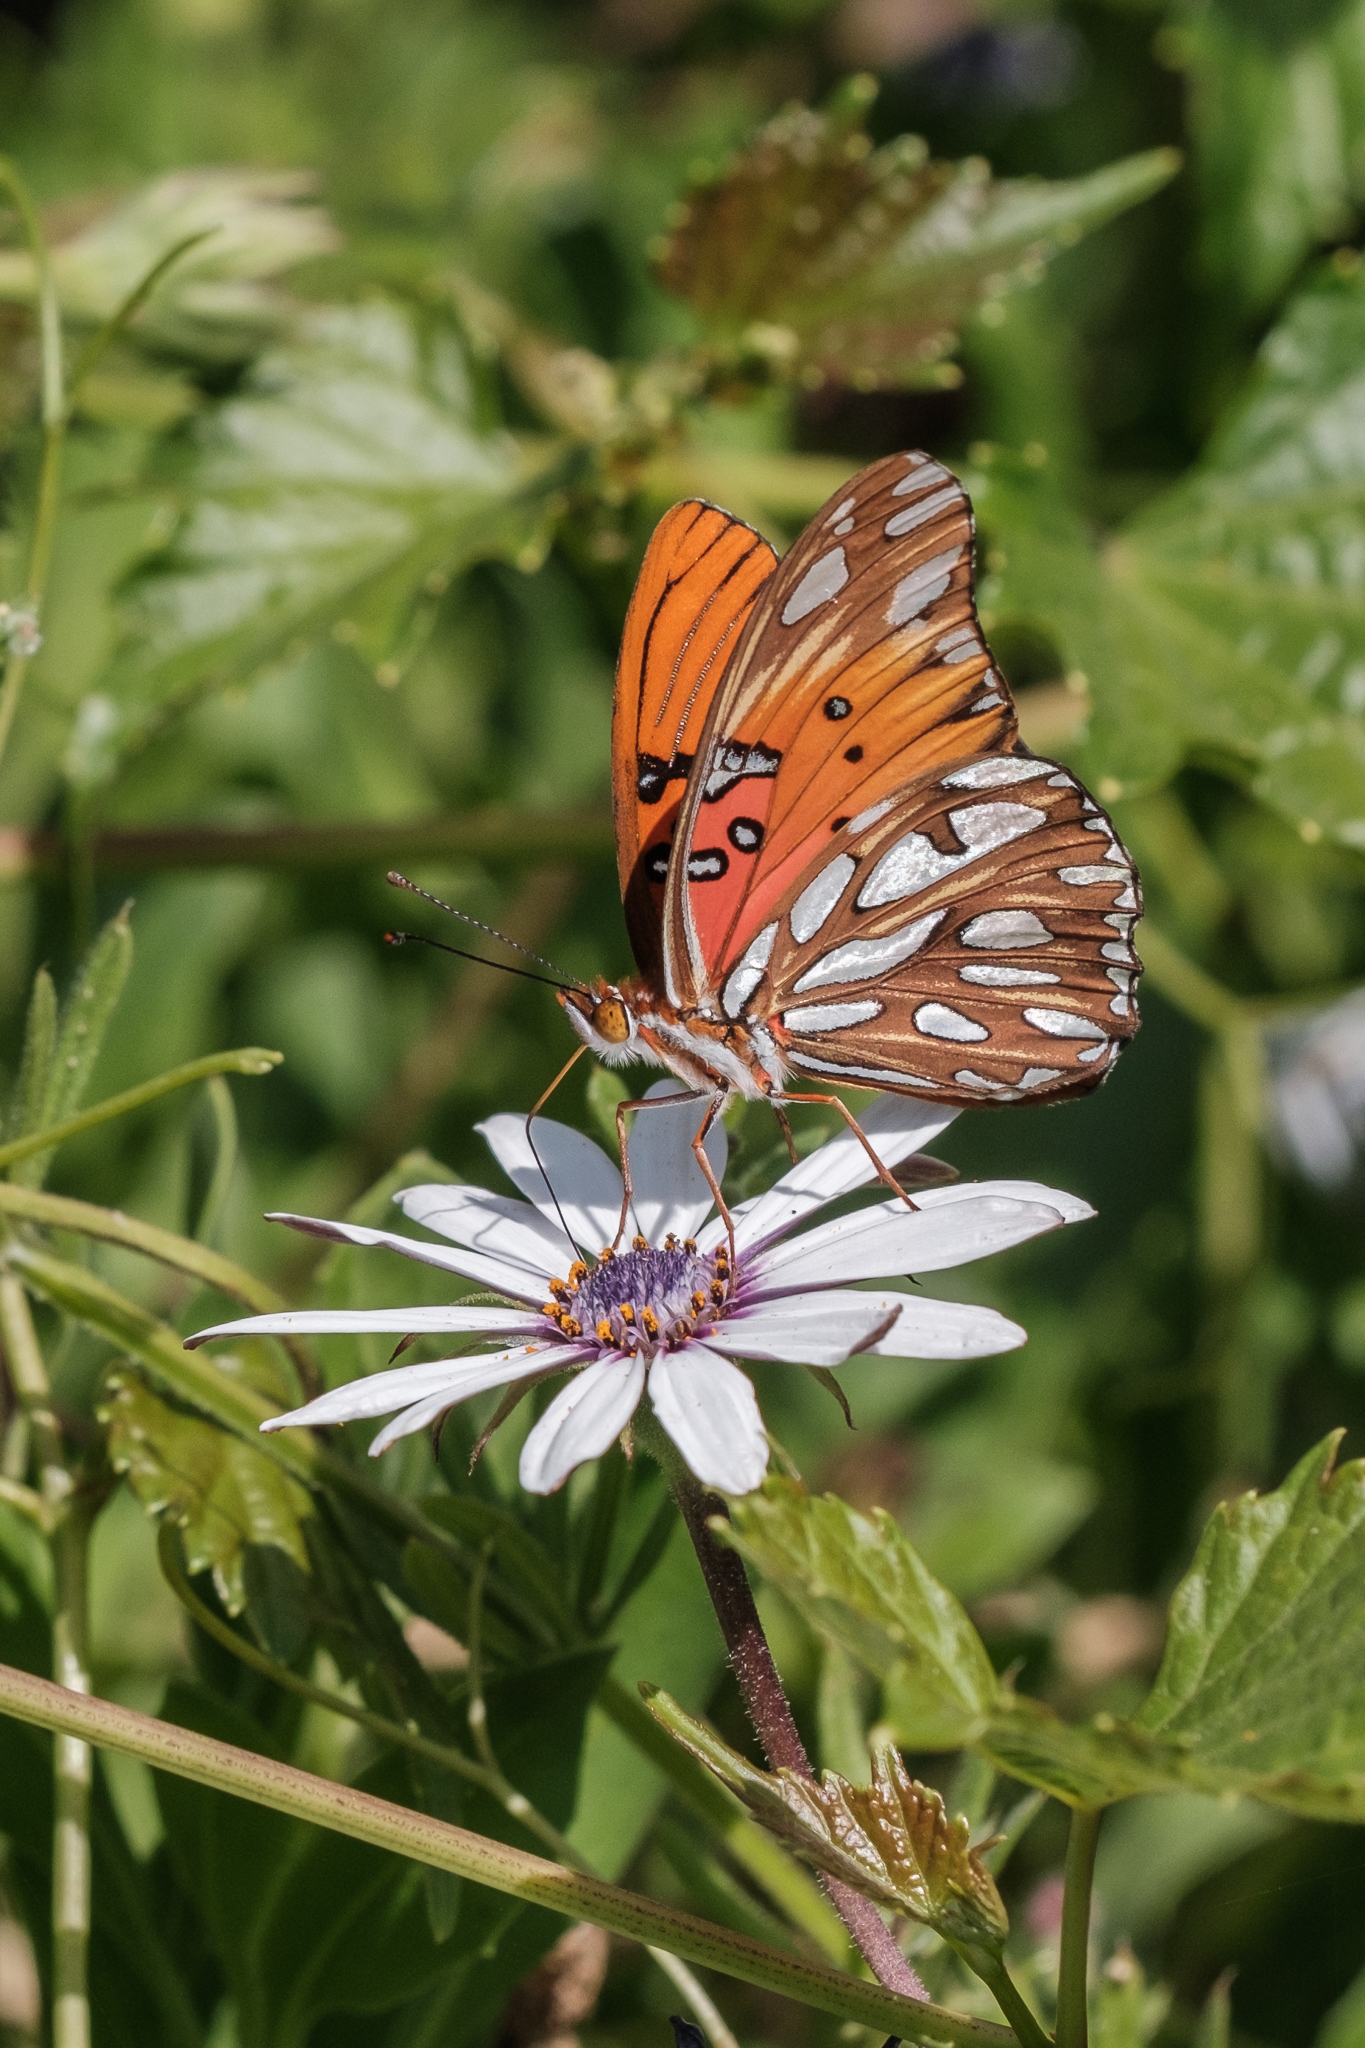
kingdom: Animalia
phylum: Arthropoda
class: Insecta
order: Lepidoptera
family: Nymphalidae
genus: Dione
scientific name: Dione vanillae
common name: Gulf fritillary
